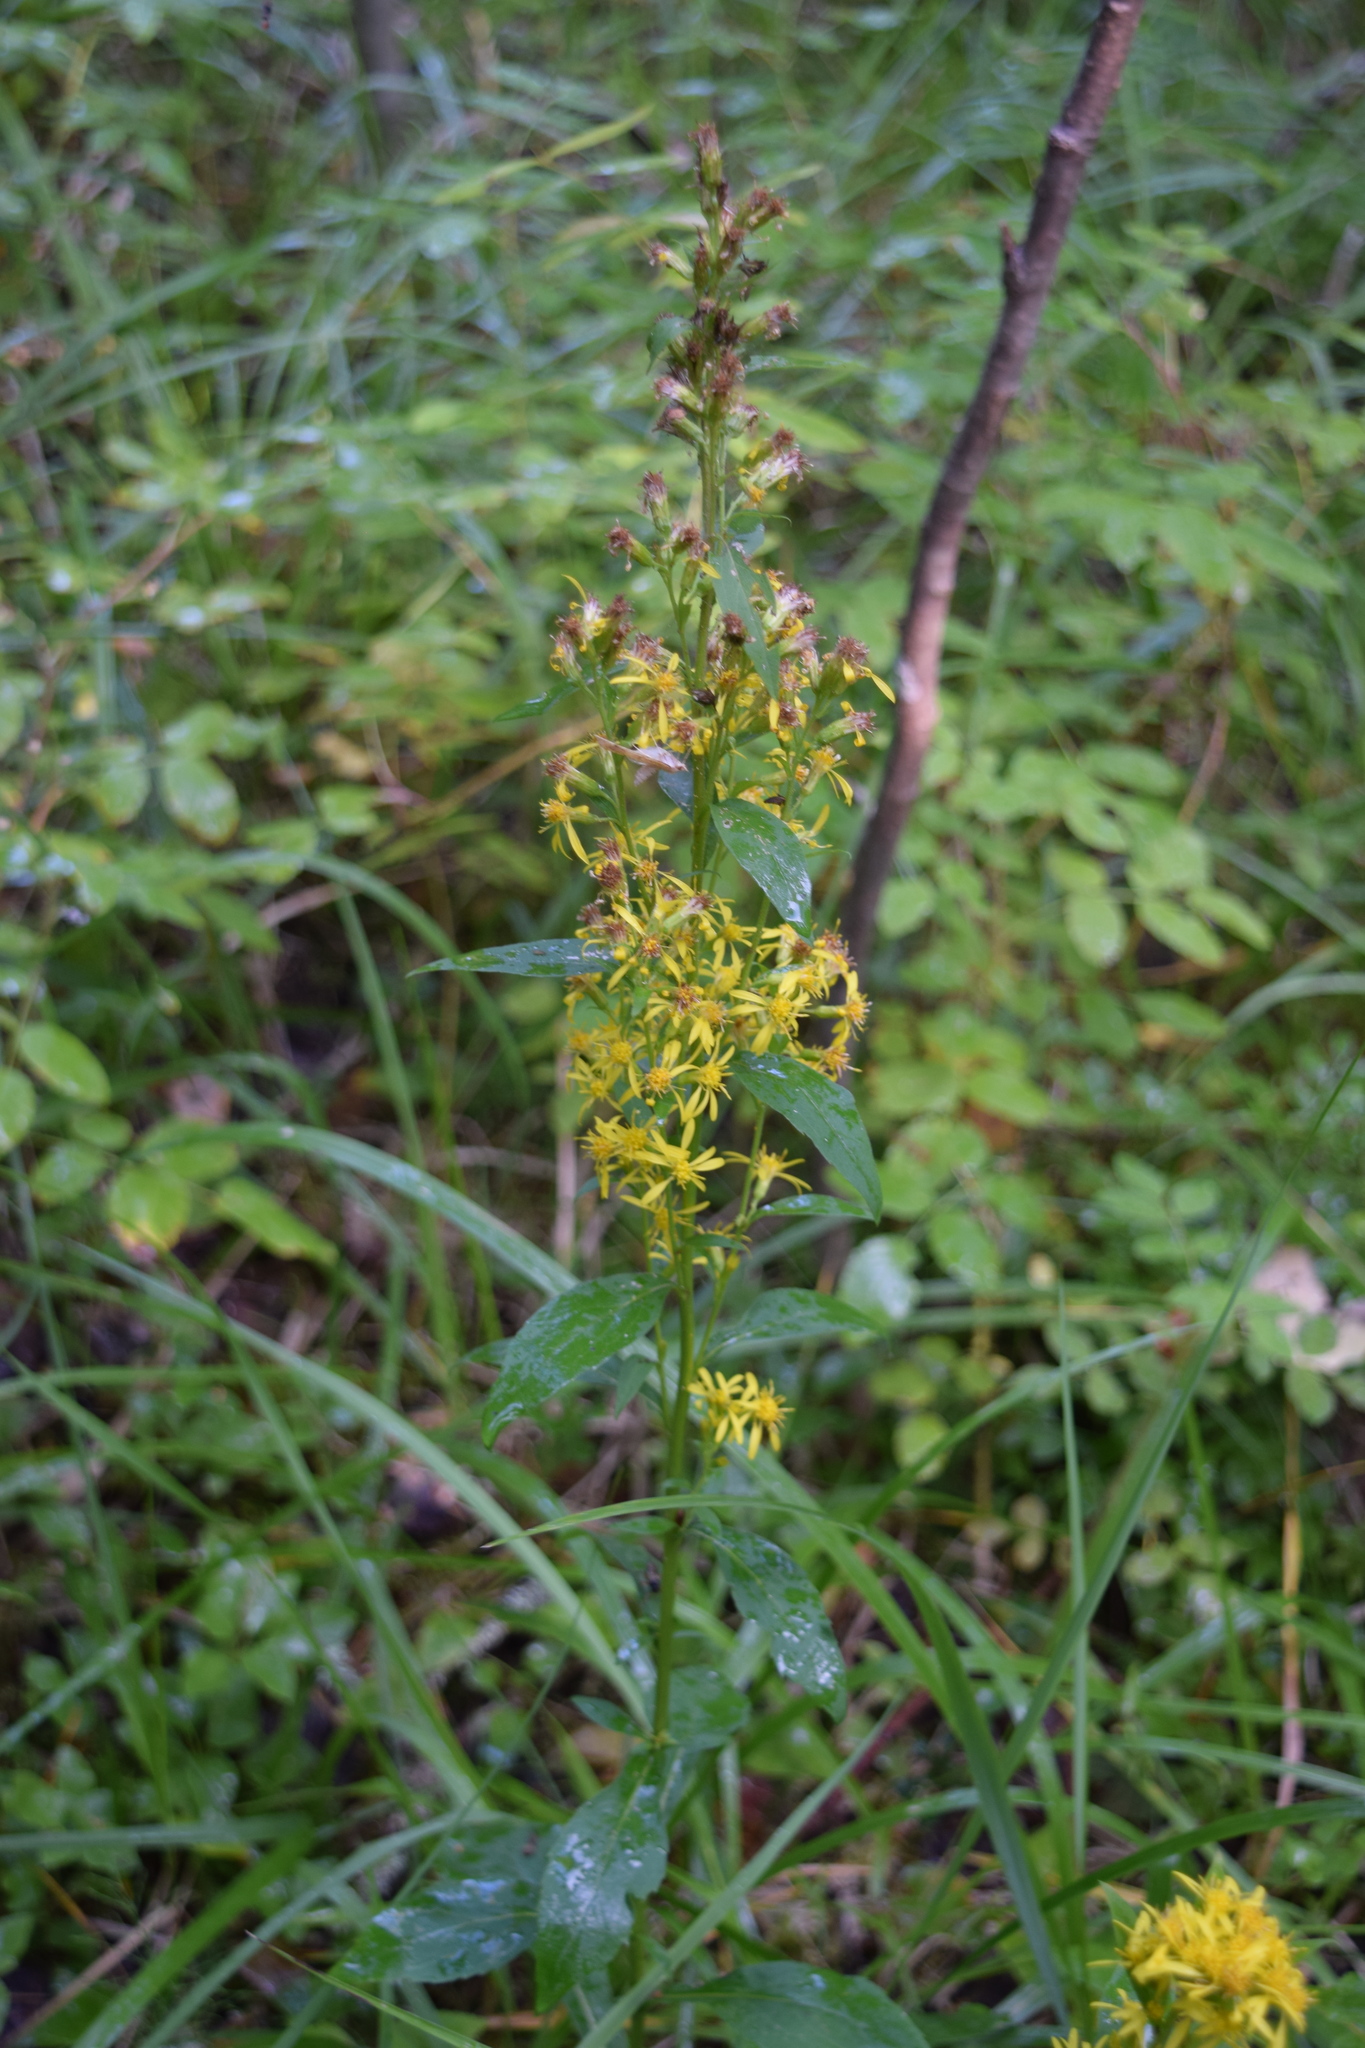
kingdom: Plantae
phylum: Tracheophyta
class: Magnoliopsida
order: Asterales
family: Asteraceae
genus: Solidago
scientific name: Solidago virgaurea
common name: Goldenrod
